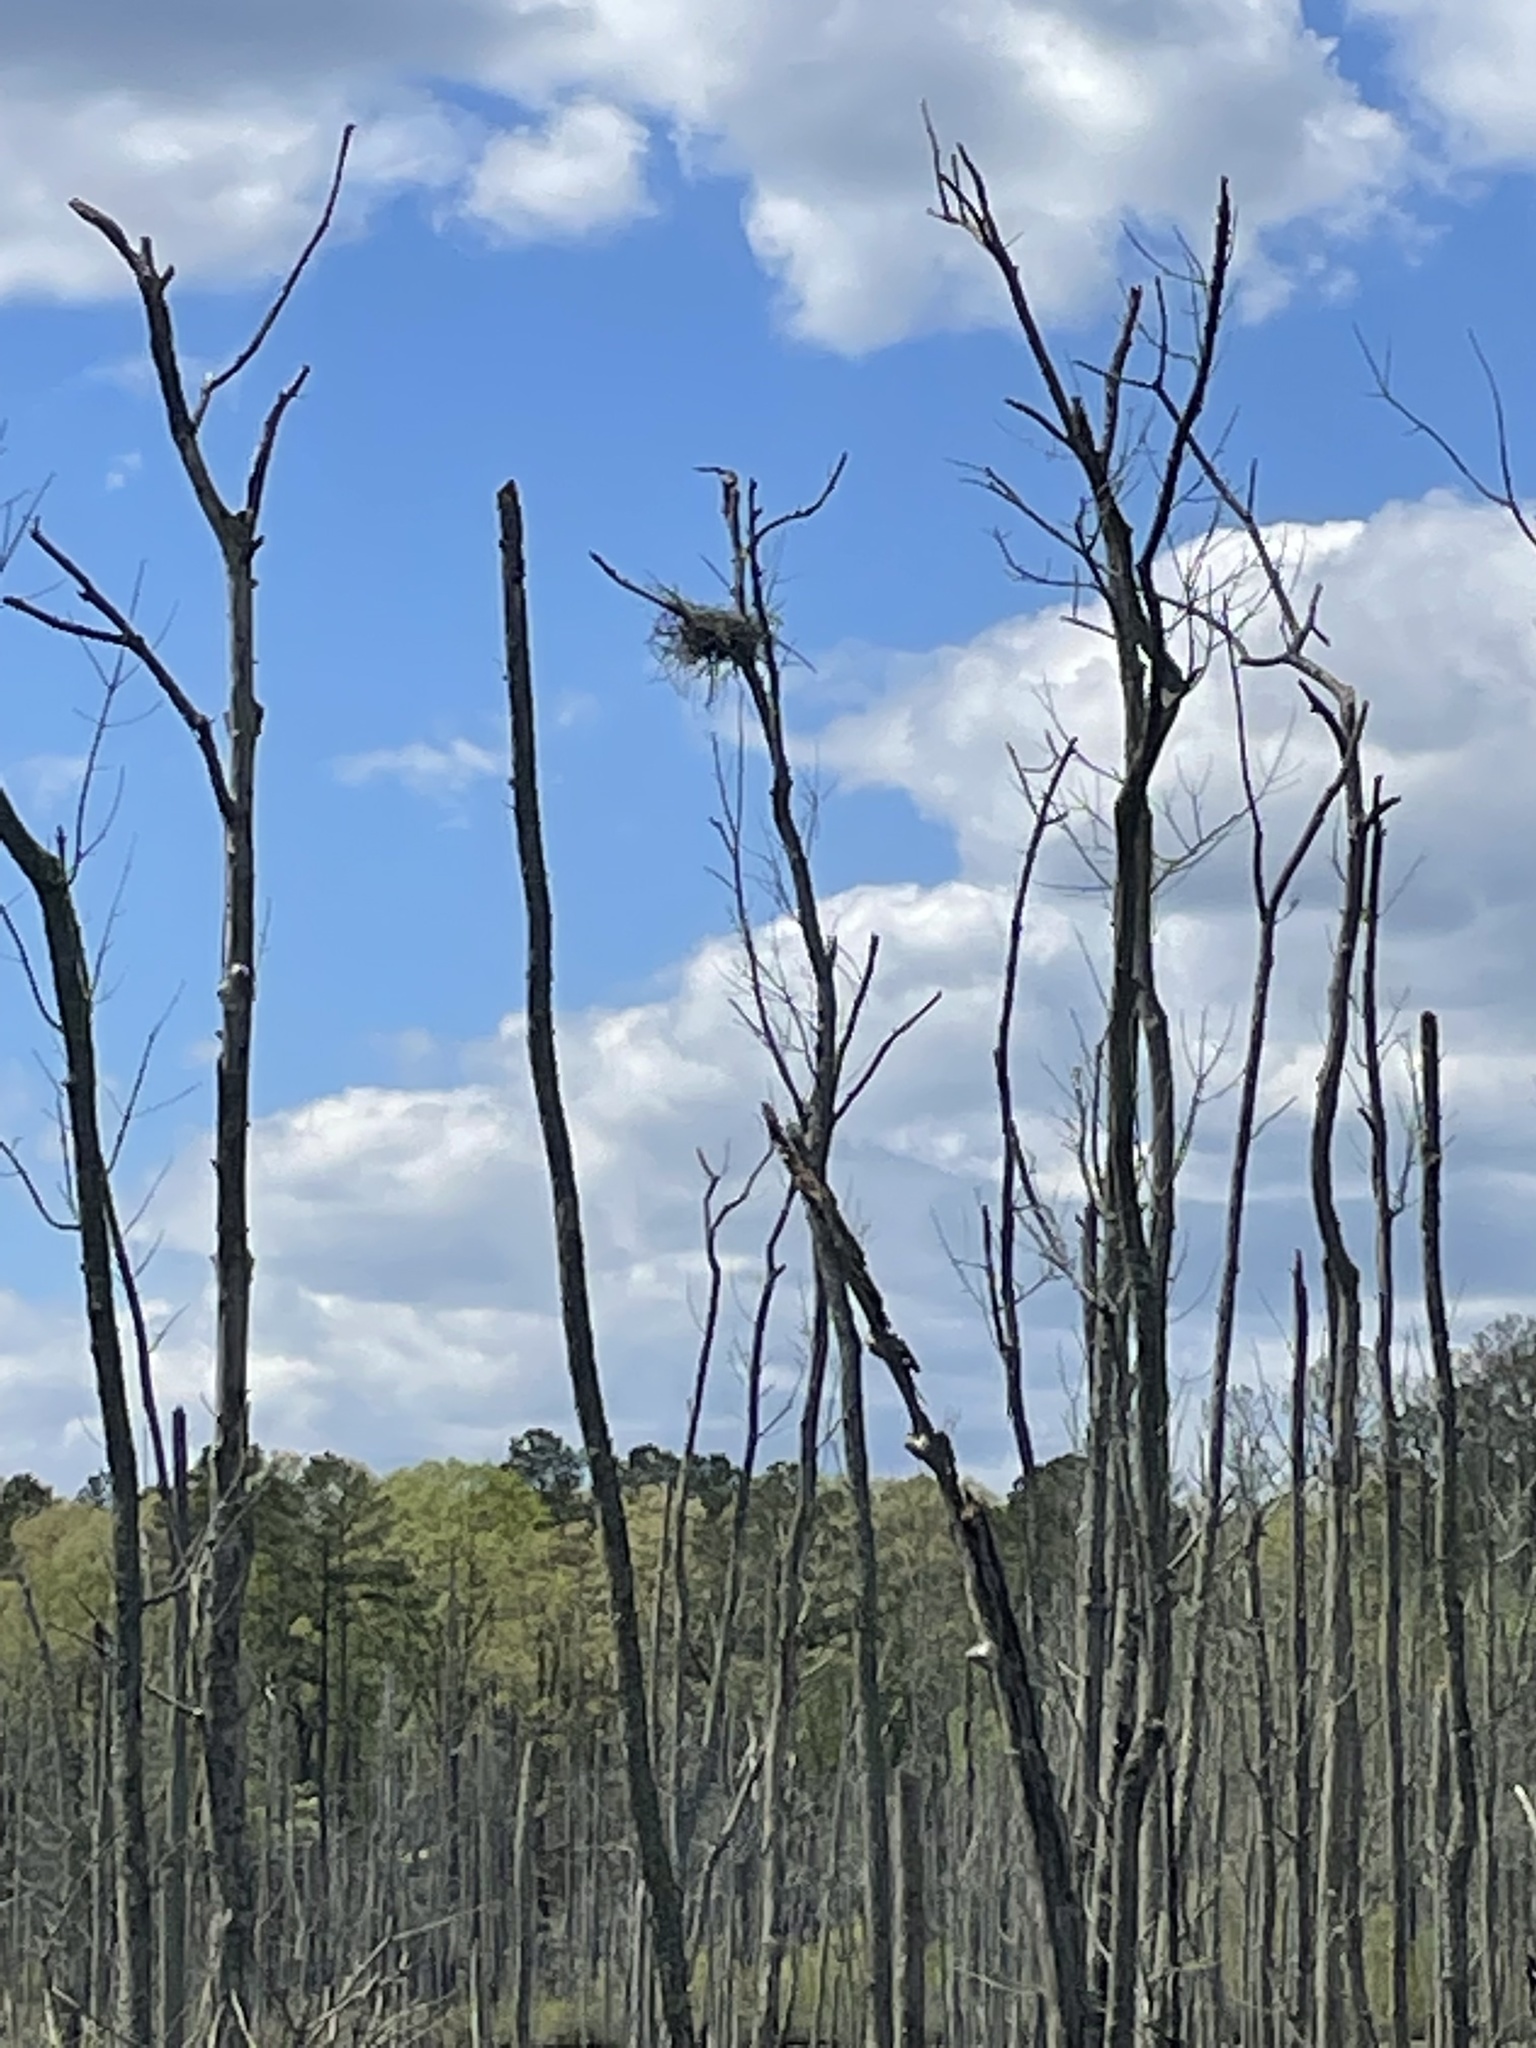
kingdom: Animalia
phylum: Chordata
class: Aves
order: Pelecaniformes
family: Ardeidae
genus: Ardea
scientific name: Ardea herodias
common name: Great blue heron
